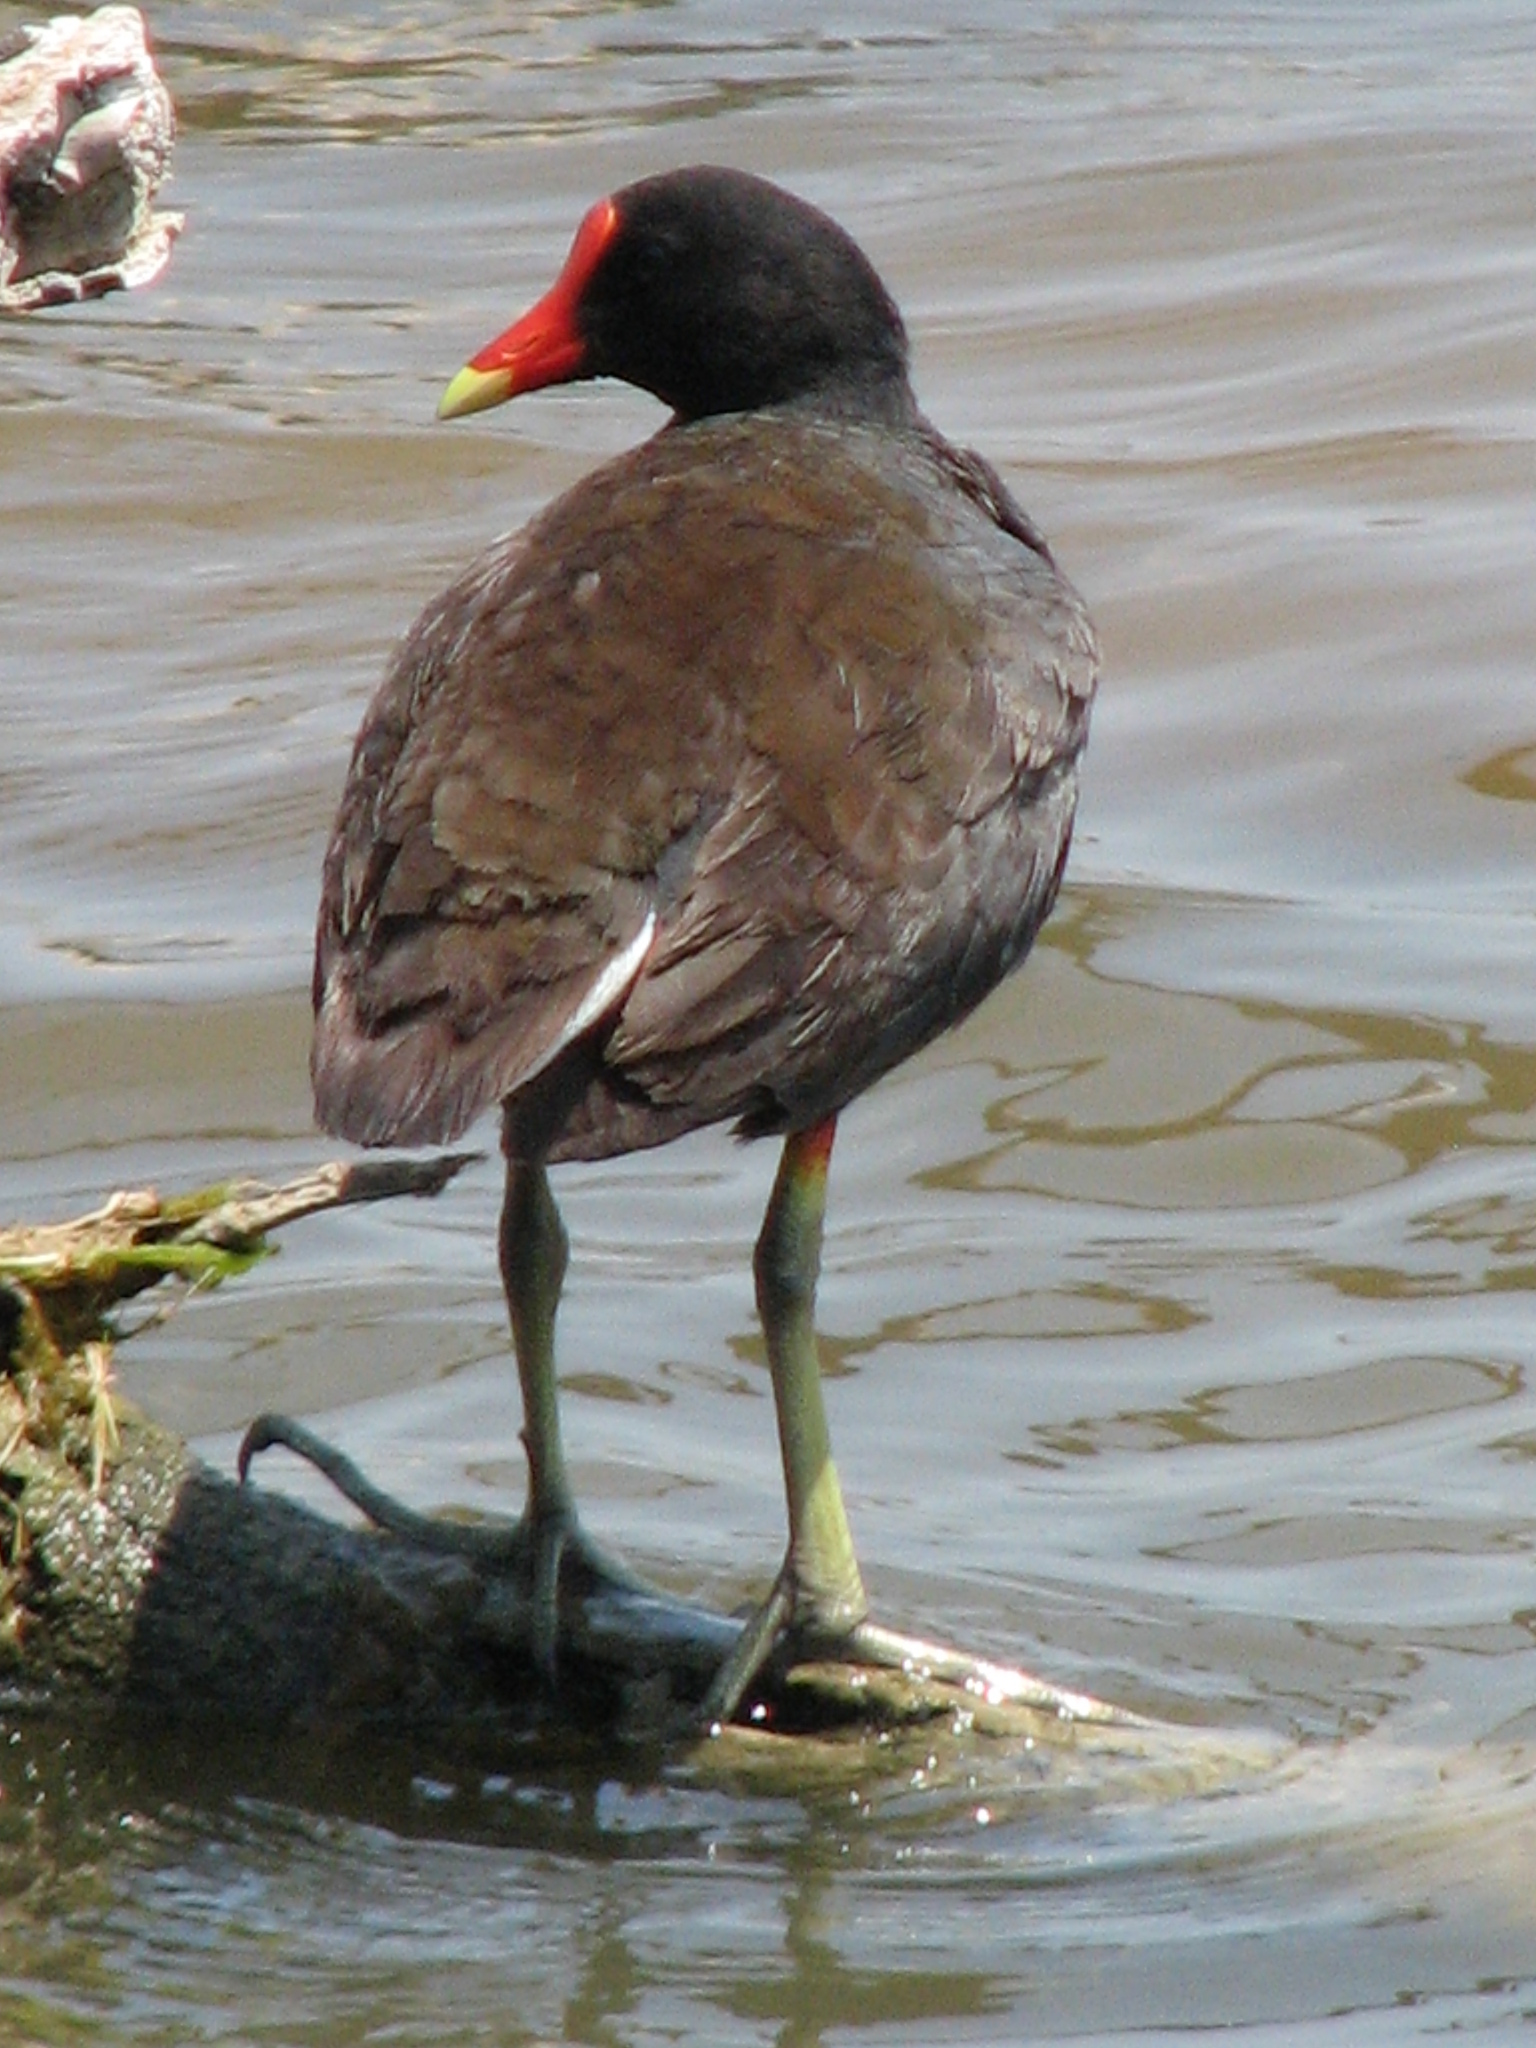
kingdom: Animalia
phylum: Chordata
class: Aves
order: Gruiformes
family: Rallidae
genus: Gallinula
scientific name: Gallinula chloropus
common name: Common moorhen
